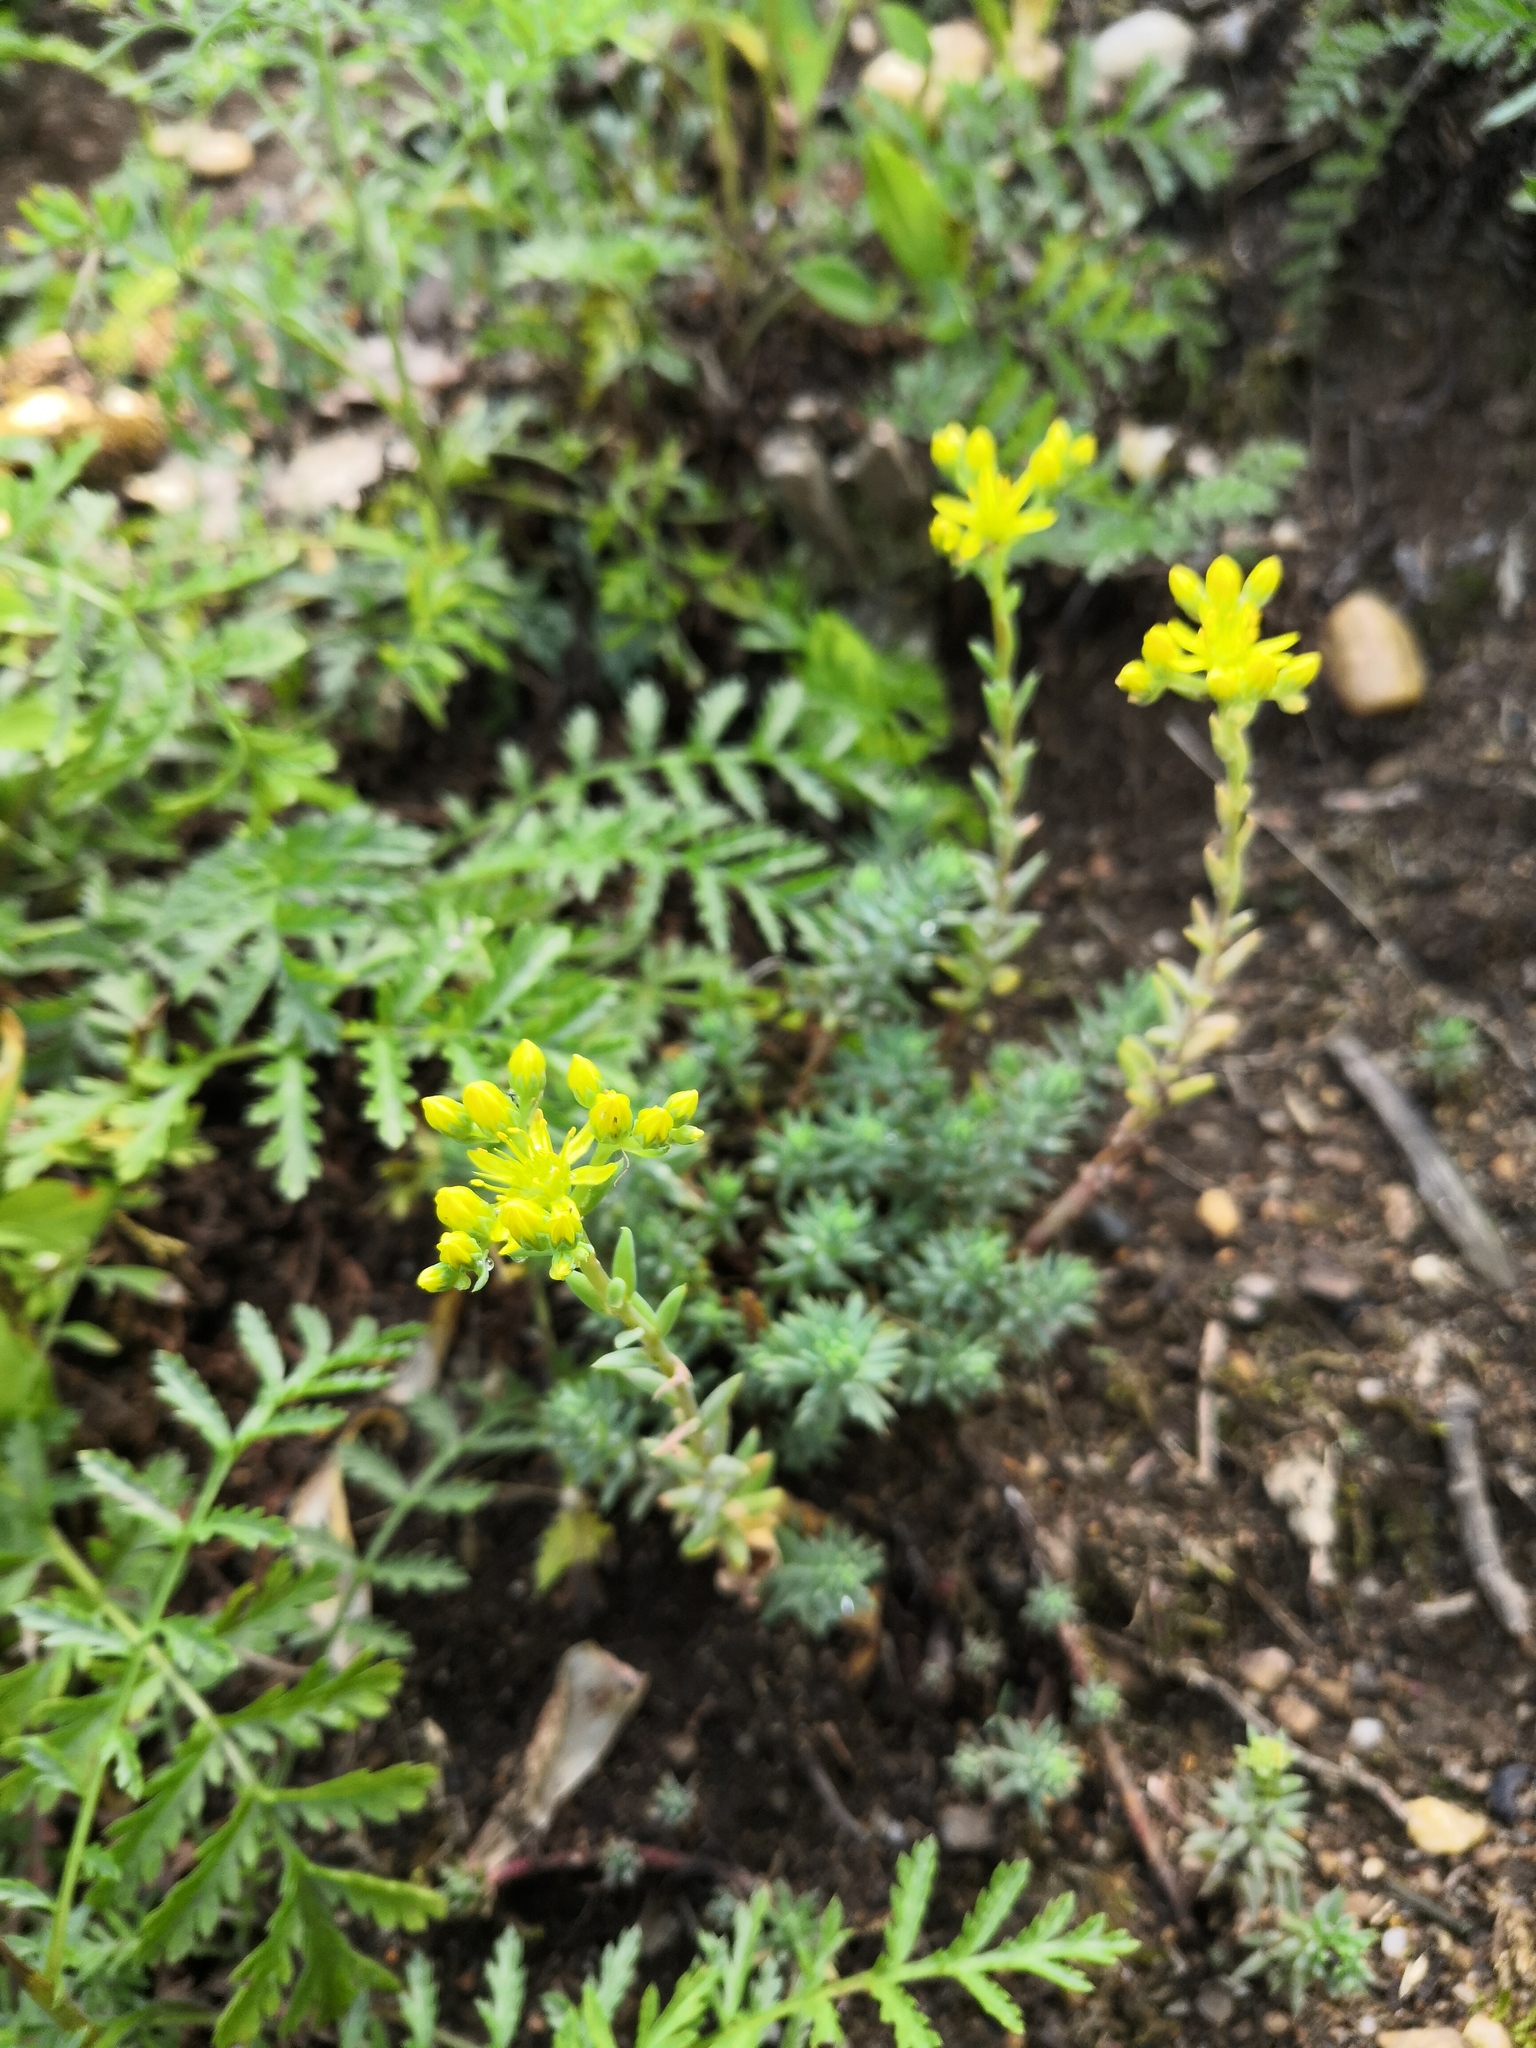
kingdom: Plantae
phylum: Tracheophyta
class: Magnoliopsida
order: Saxifragales
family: Crassulaceae
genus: Petrosedum
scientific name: Petrosedum rupestre
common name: Jenny's stonecrop
